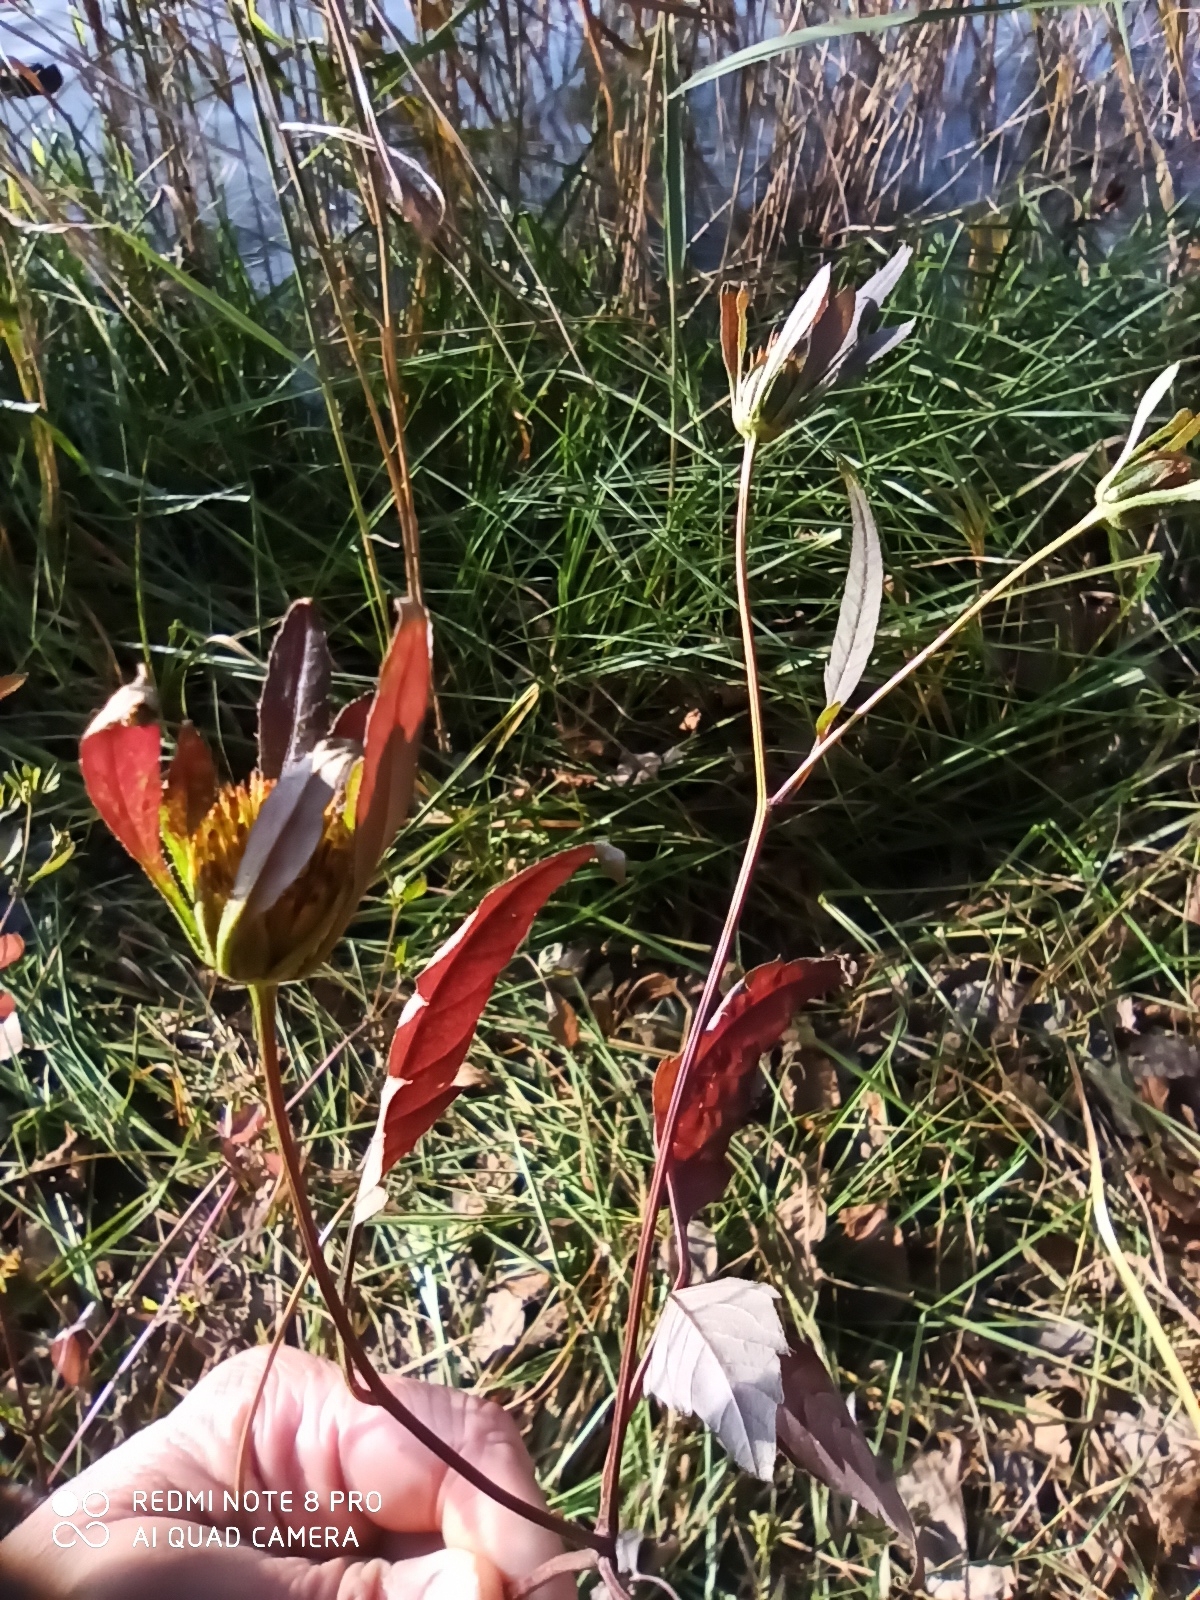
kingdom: Plantae
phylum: Tracheophyta
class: Magnoliopsida
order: Asterales
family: Asteraceae
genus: Bidens
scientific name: Bidens frondosa
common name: Beggarticks
